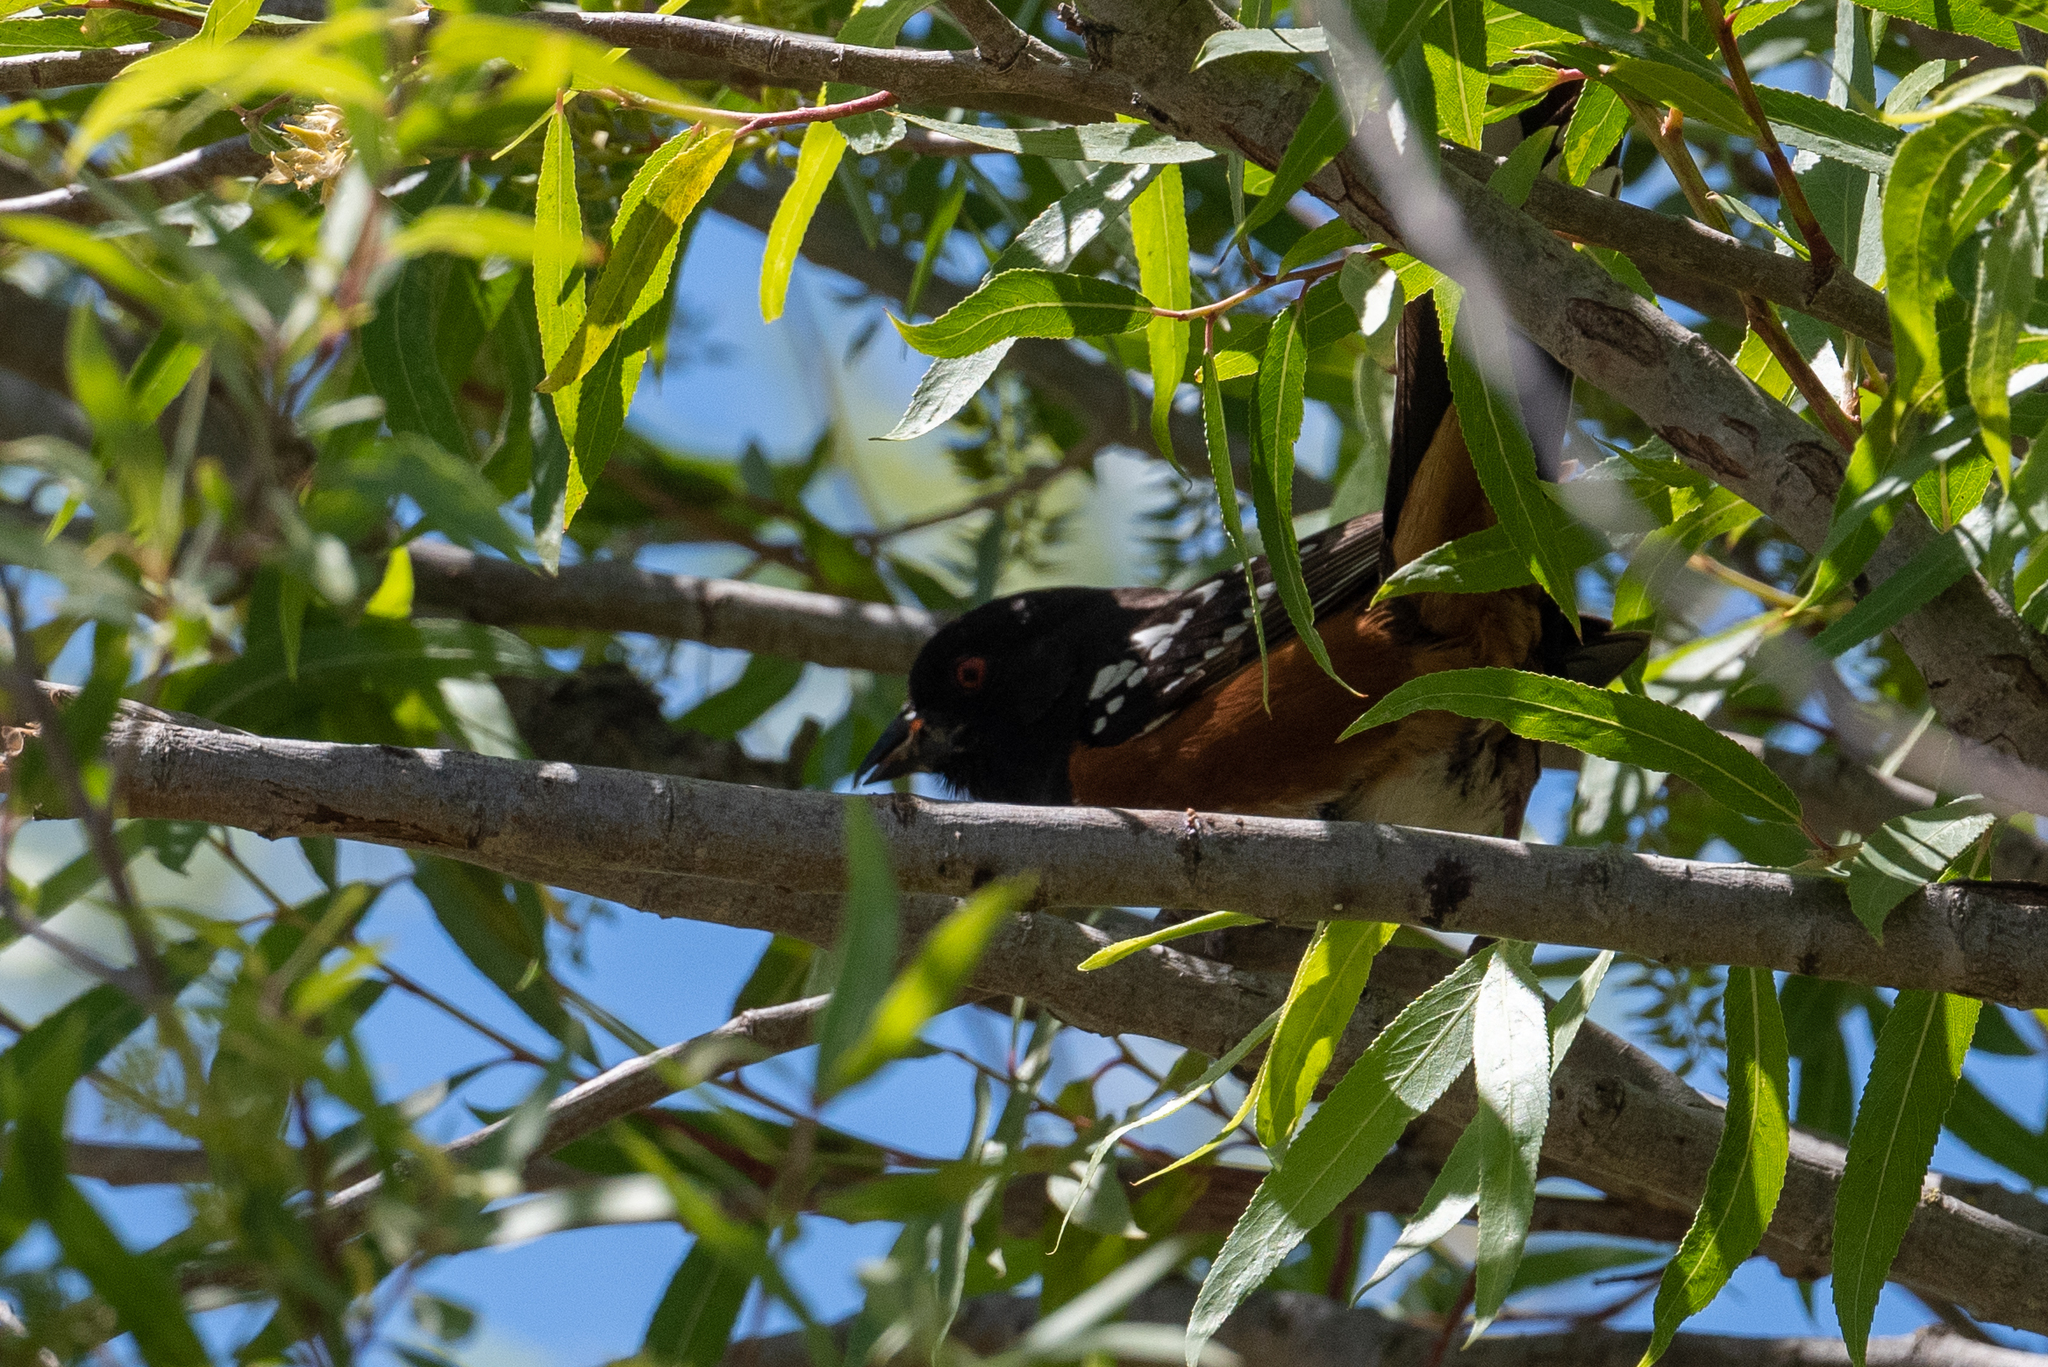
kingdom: Animalia
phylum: Chordata
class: Aves
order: Passeriformes
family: Passerellidae
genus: Pipilo
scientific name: Pipilo maculatus
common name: Spotted towhee
